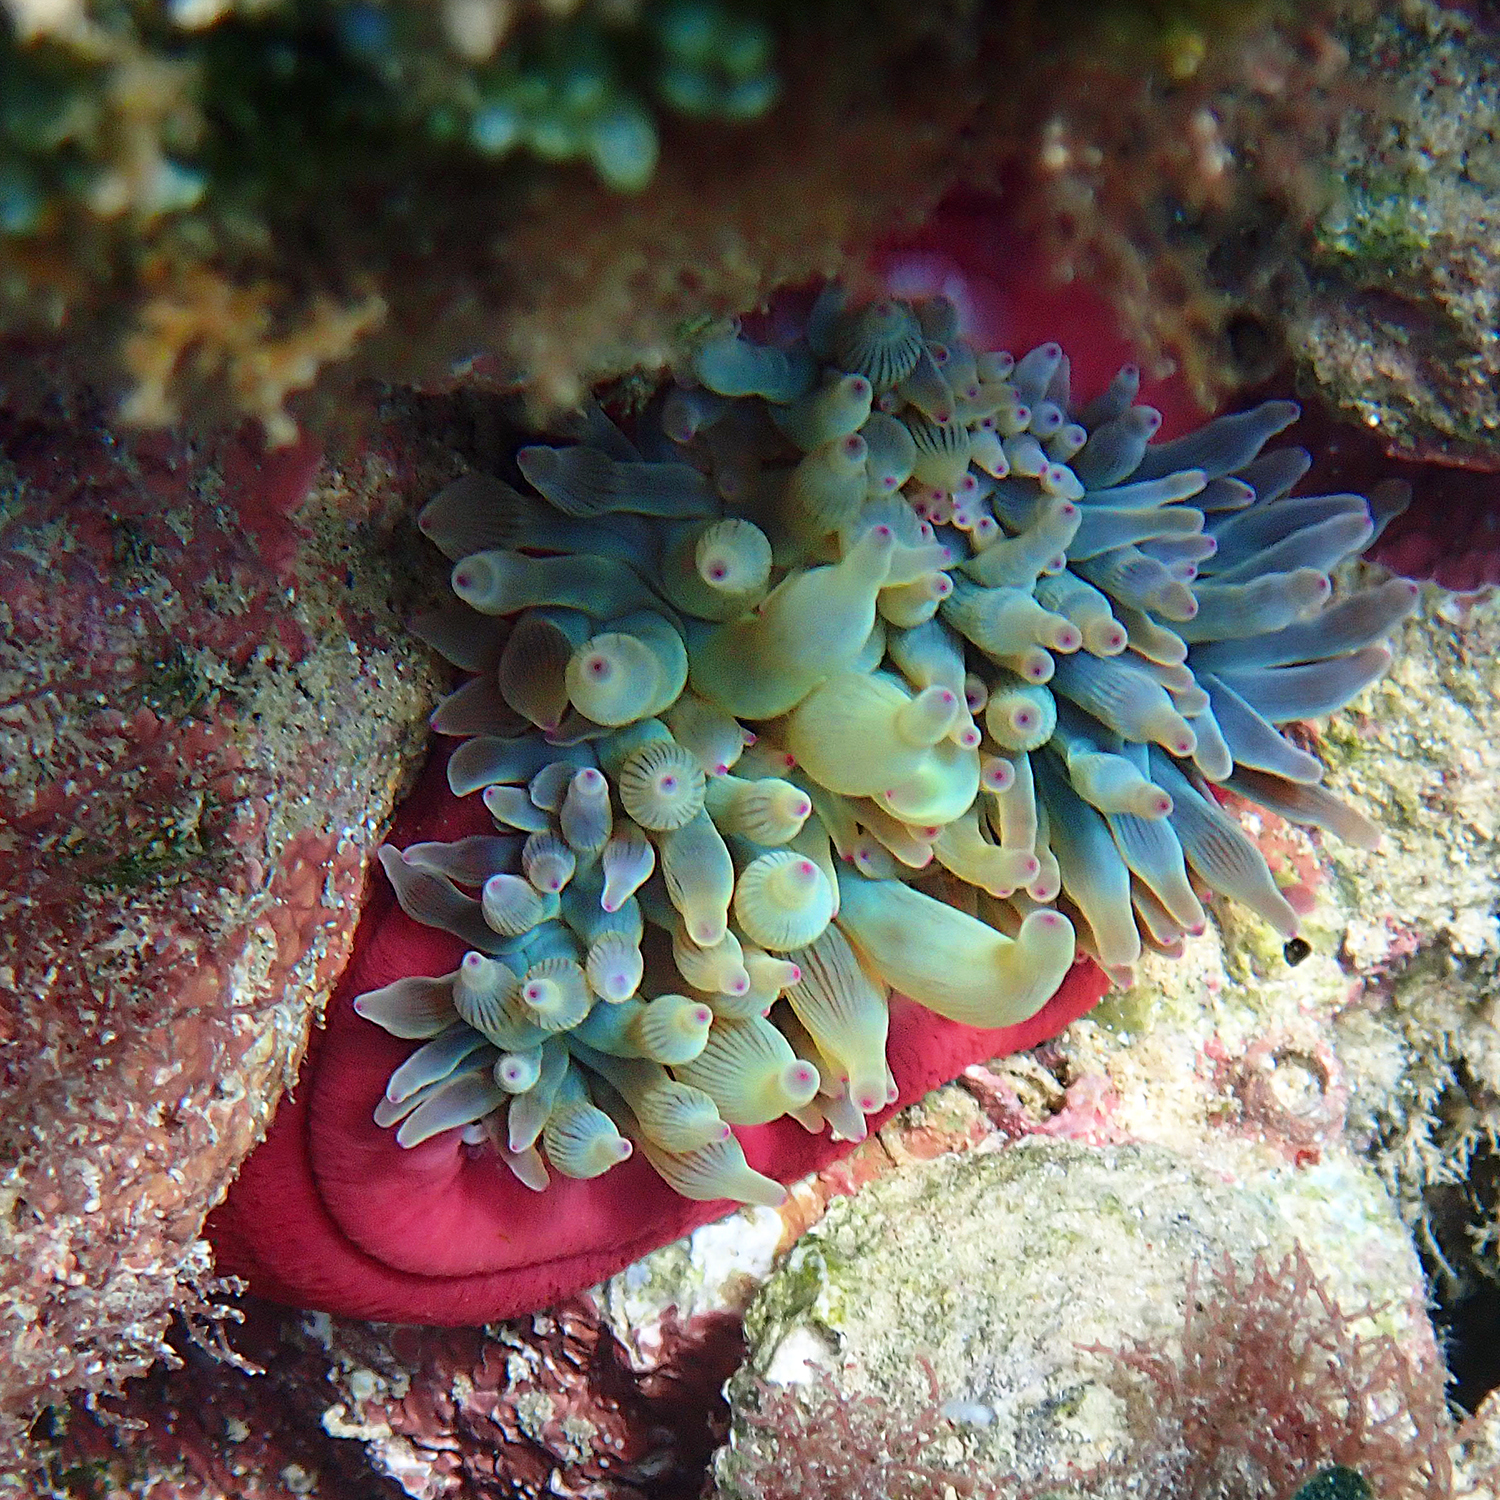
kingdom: Animalia
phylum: Cnidaria
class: Anthozoa
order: Actiniaria
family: Actiniidae
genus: Entacmaea
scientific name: Entacmaea quadricolor
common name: Bulb tentacle sea anemone
